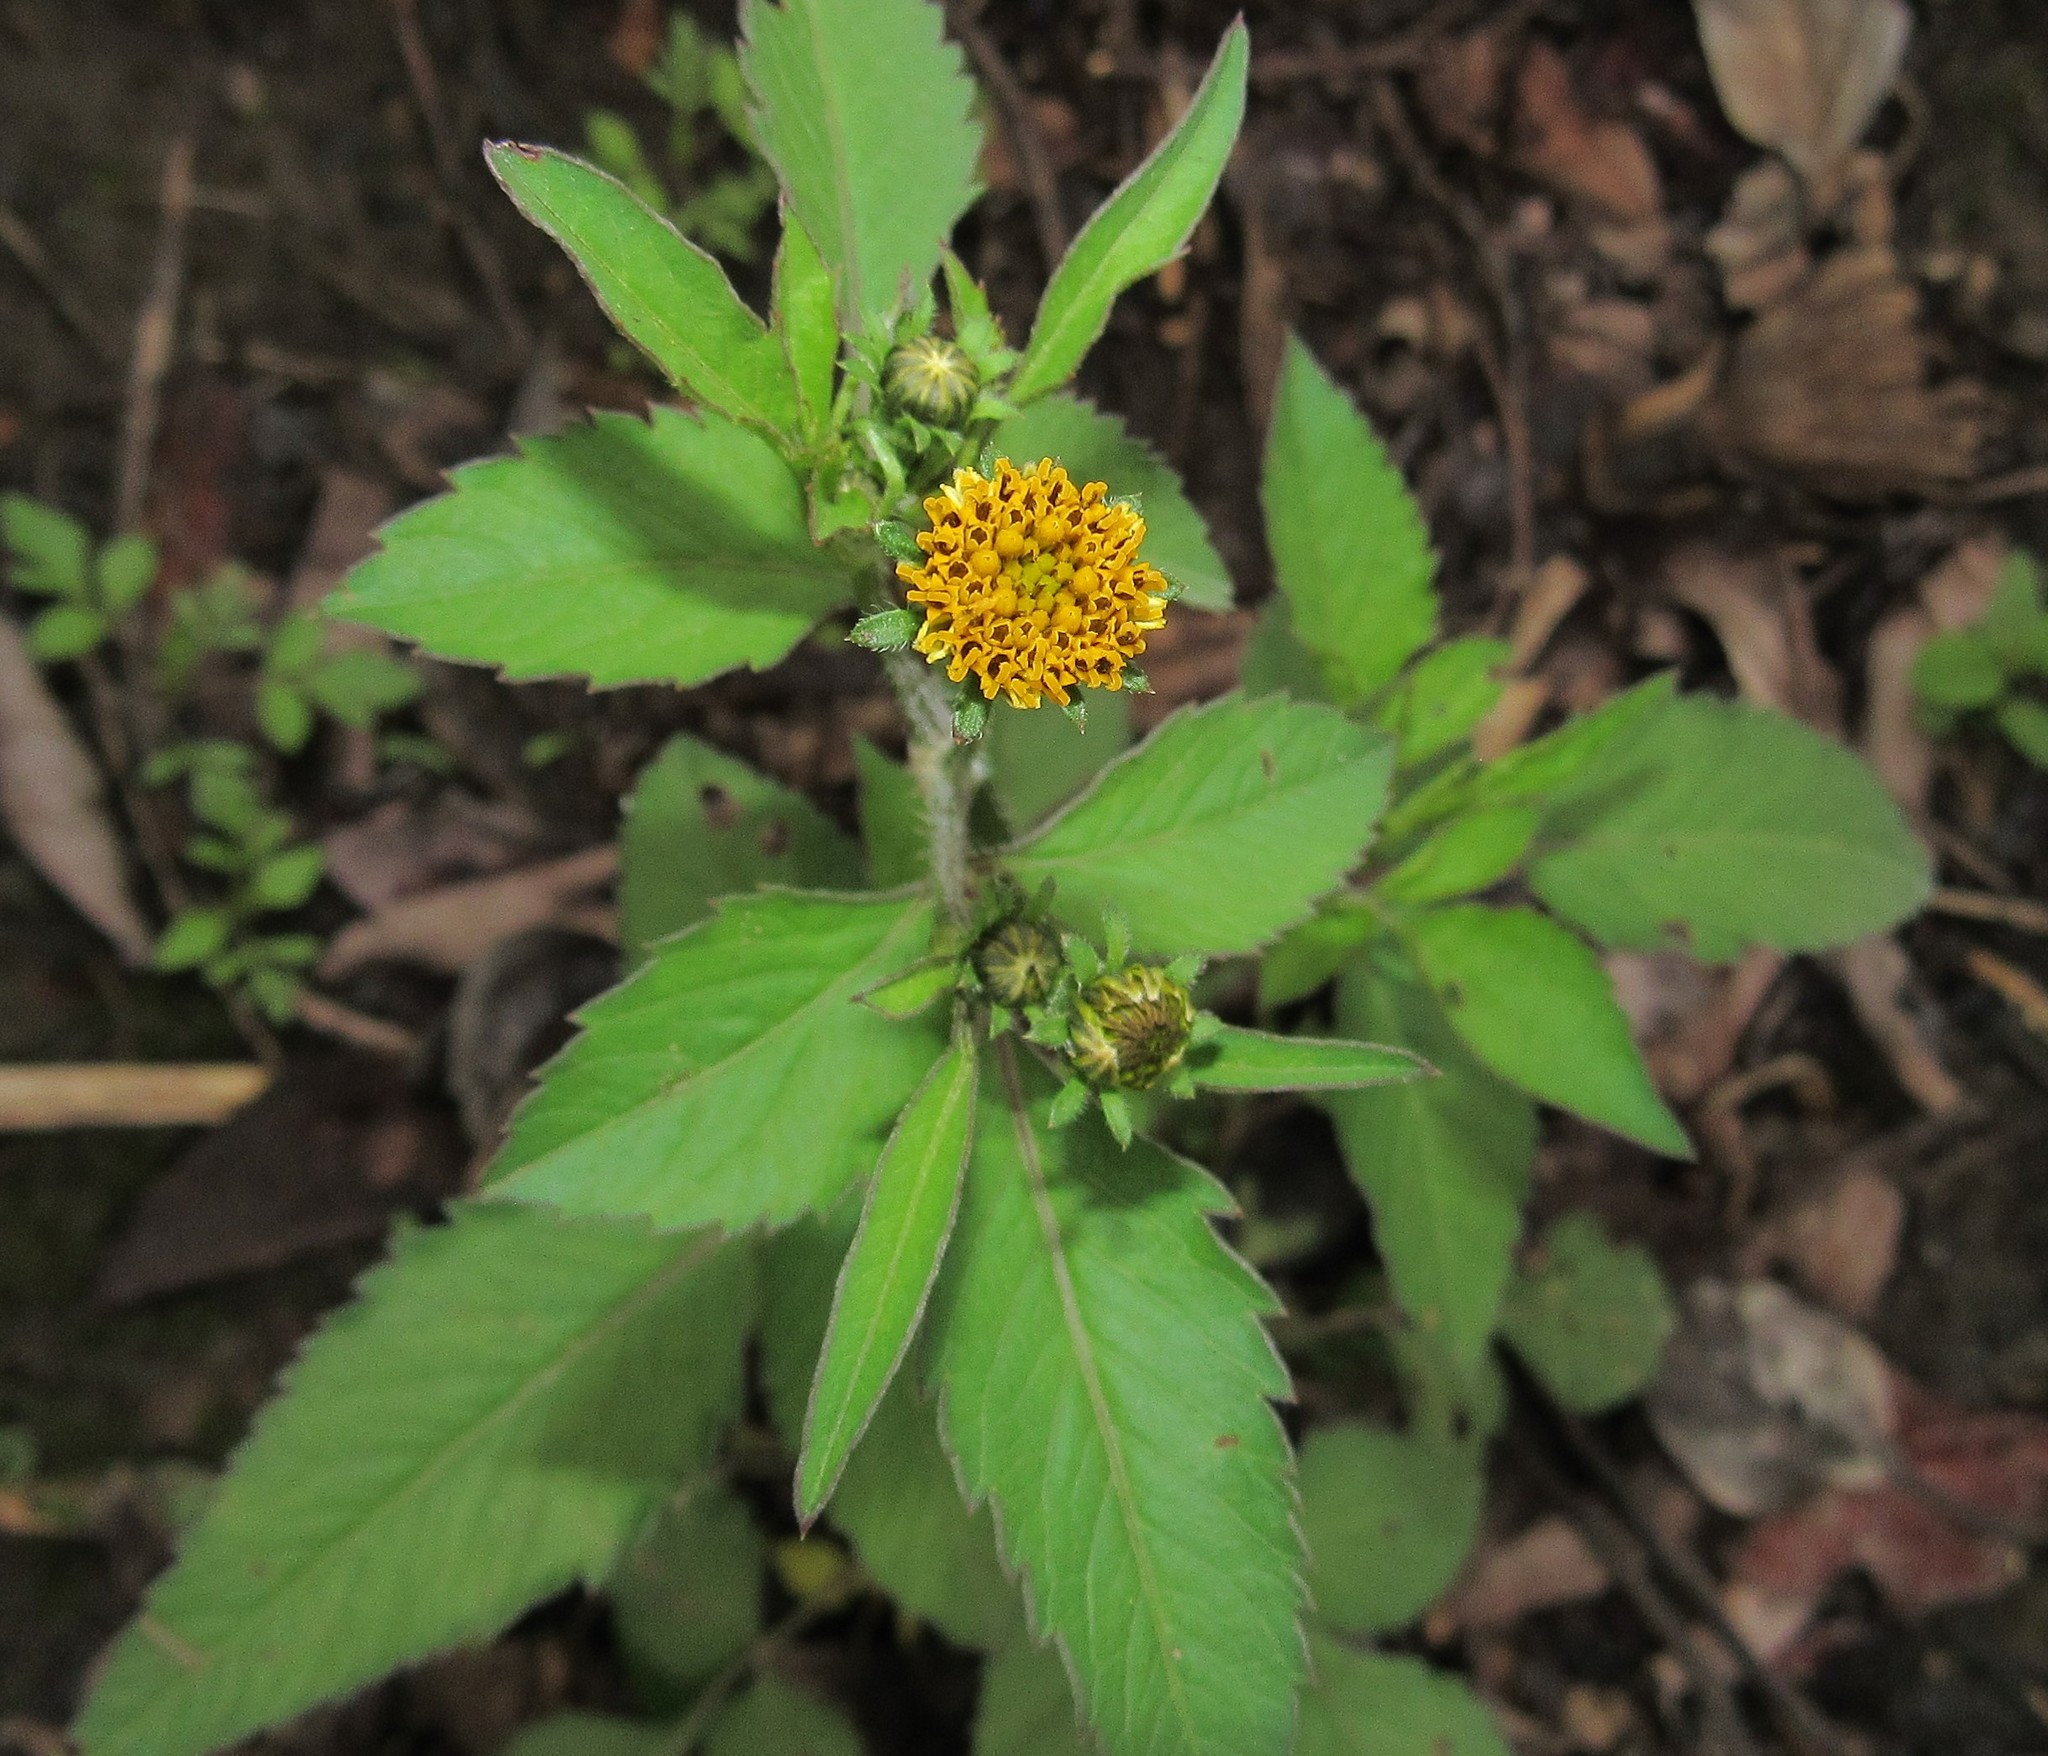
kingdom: Plantae
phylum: Tracheophyta
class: Magnoliopsida
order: Asterales
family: Asteraceae
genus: Bidens
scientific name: Bidens pilosa
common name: Black-jack
